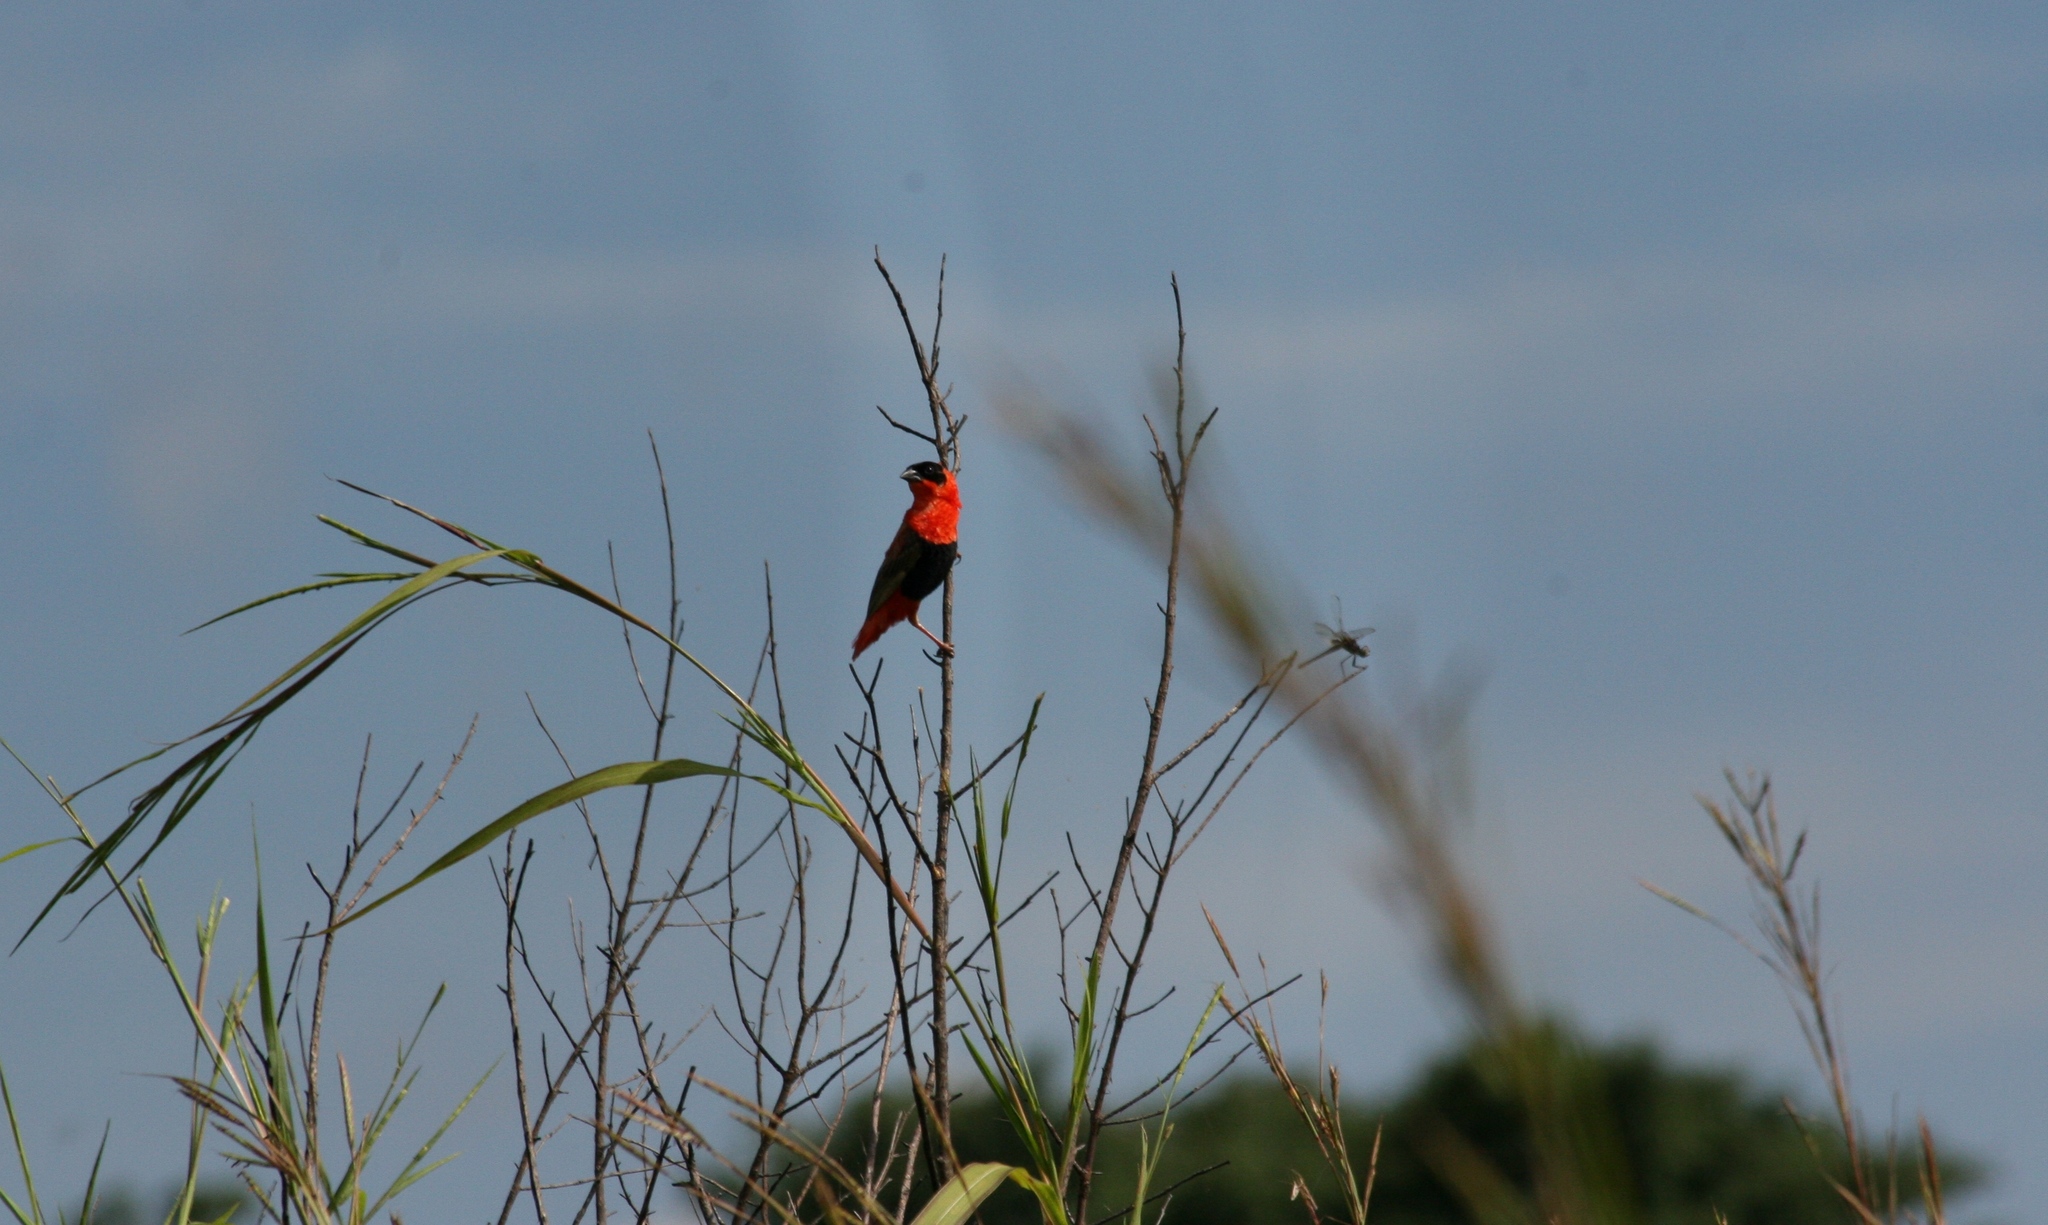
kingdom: Animalia
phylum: Chordata
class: Aves
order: Passeriformes
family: Ploceidae
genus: Euplectes
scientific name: Euplectes franciscanus
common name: Northern red bishop
